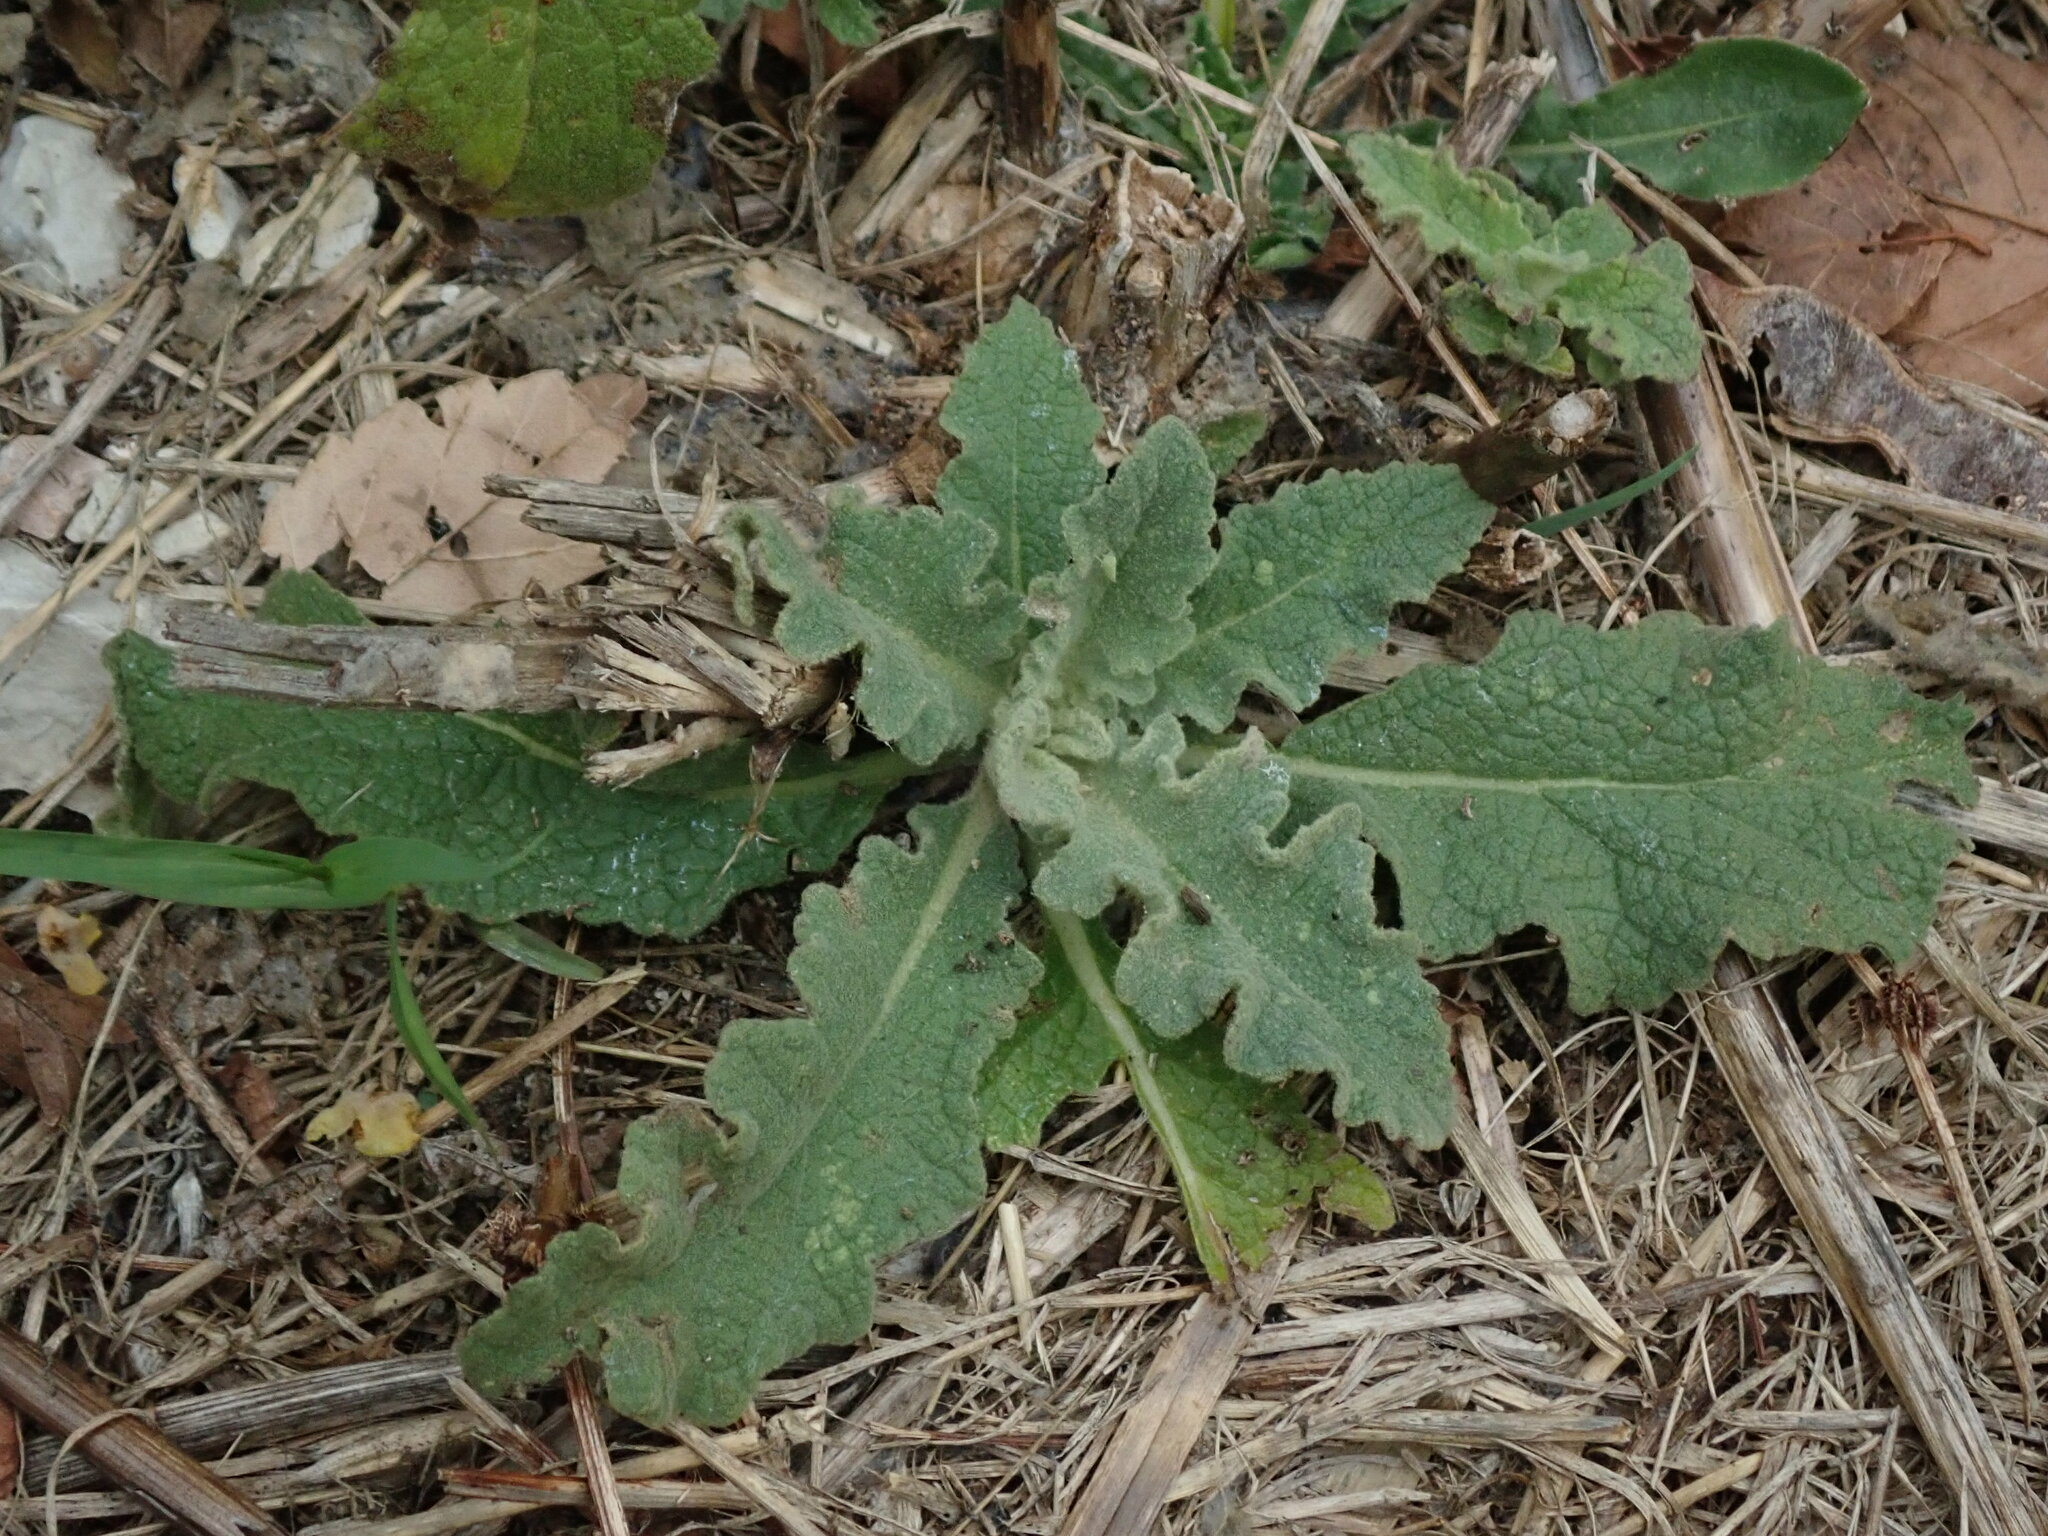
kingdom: Plantae
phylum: Tracheophyta
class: Magnoliopsida
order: Lamiales
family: Scrophulariaceae
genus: Verbascum
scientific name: Verbascum sinuatum
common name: Wavyleaf mullein
